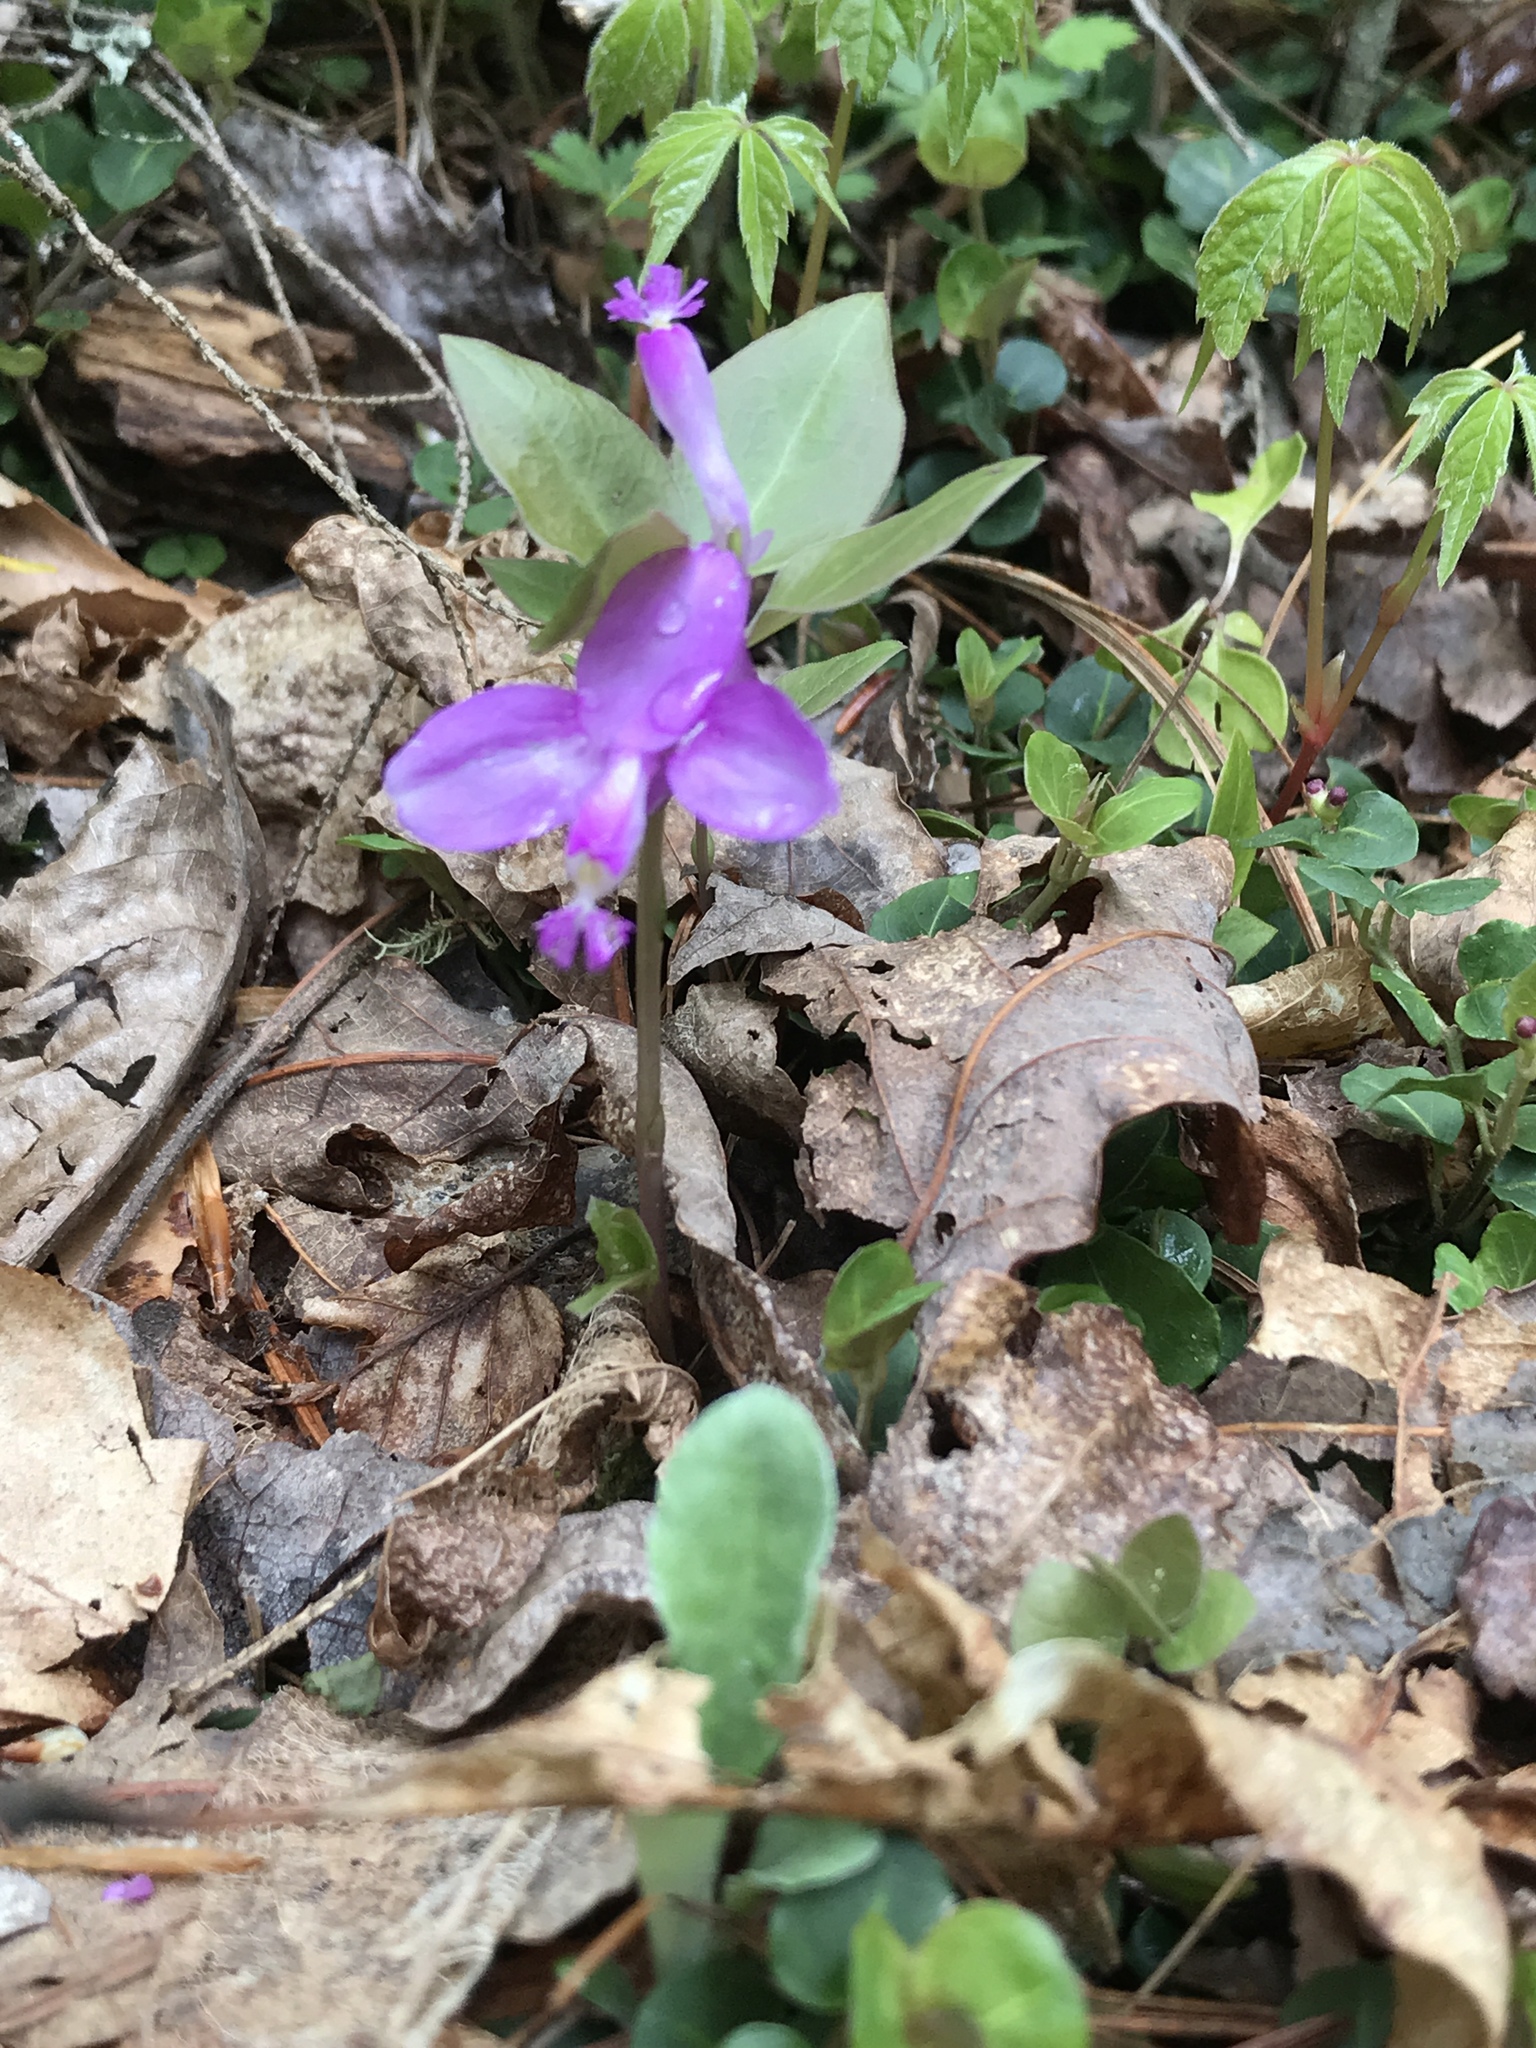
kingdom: Plantae
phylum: Tracheophyta
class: Magnoliopsida
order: Fabales
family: Polygalaceae
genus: Polygaloides
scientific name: Polygaloides paucifolia
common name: Bird-on-the-wing
